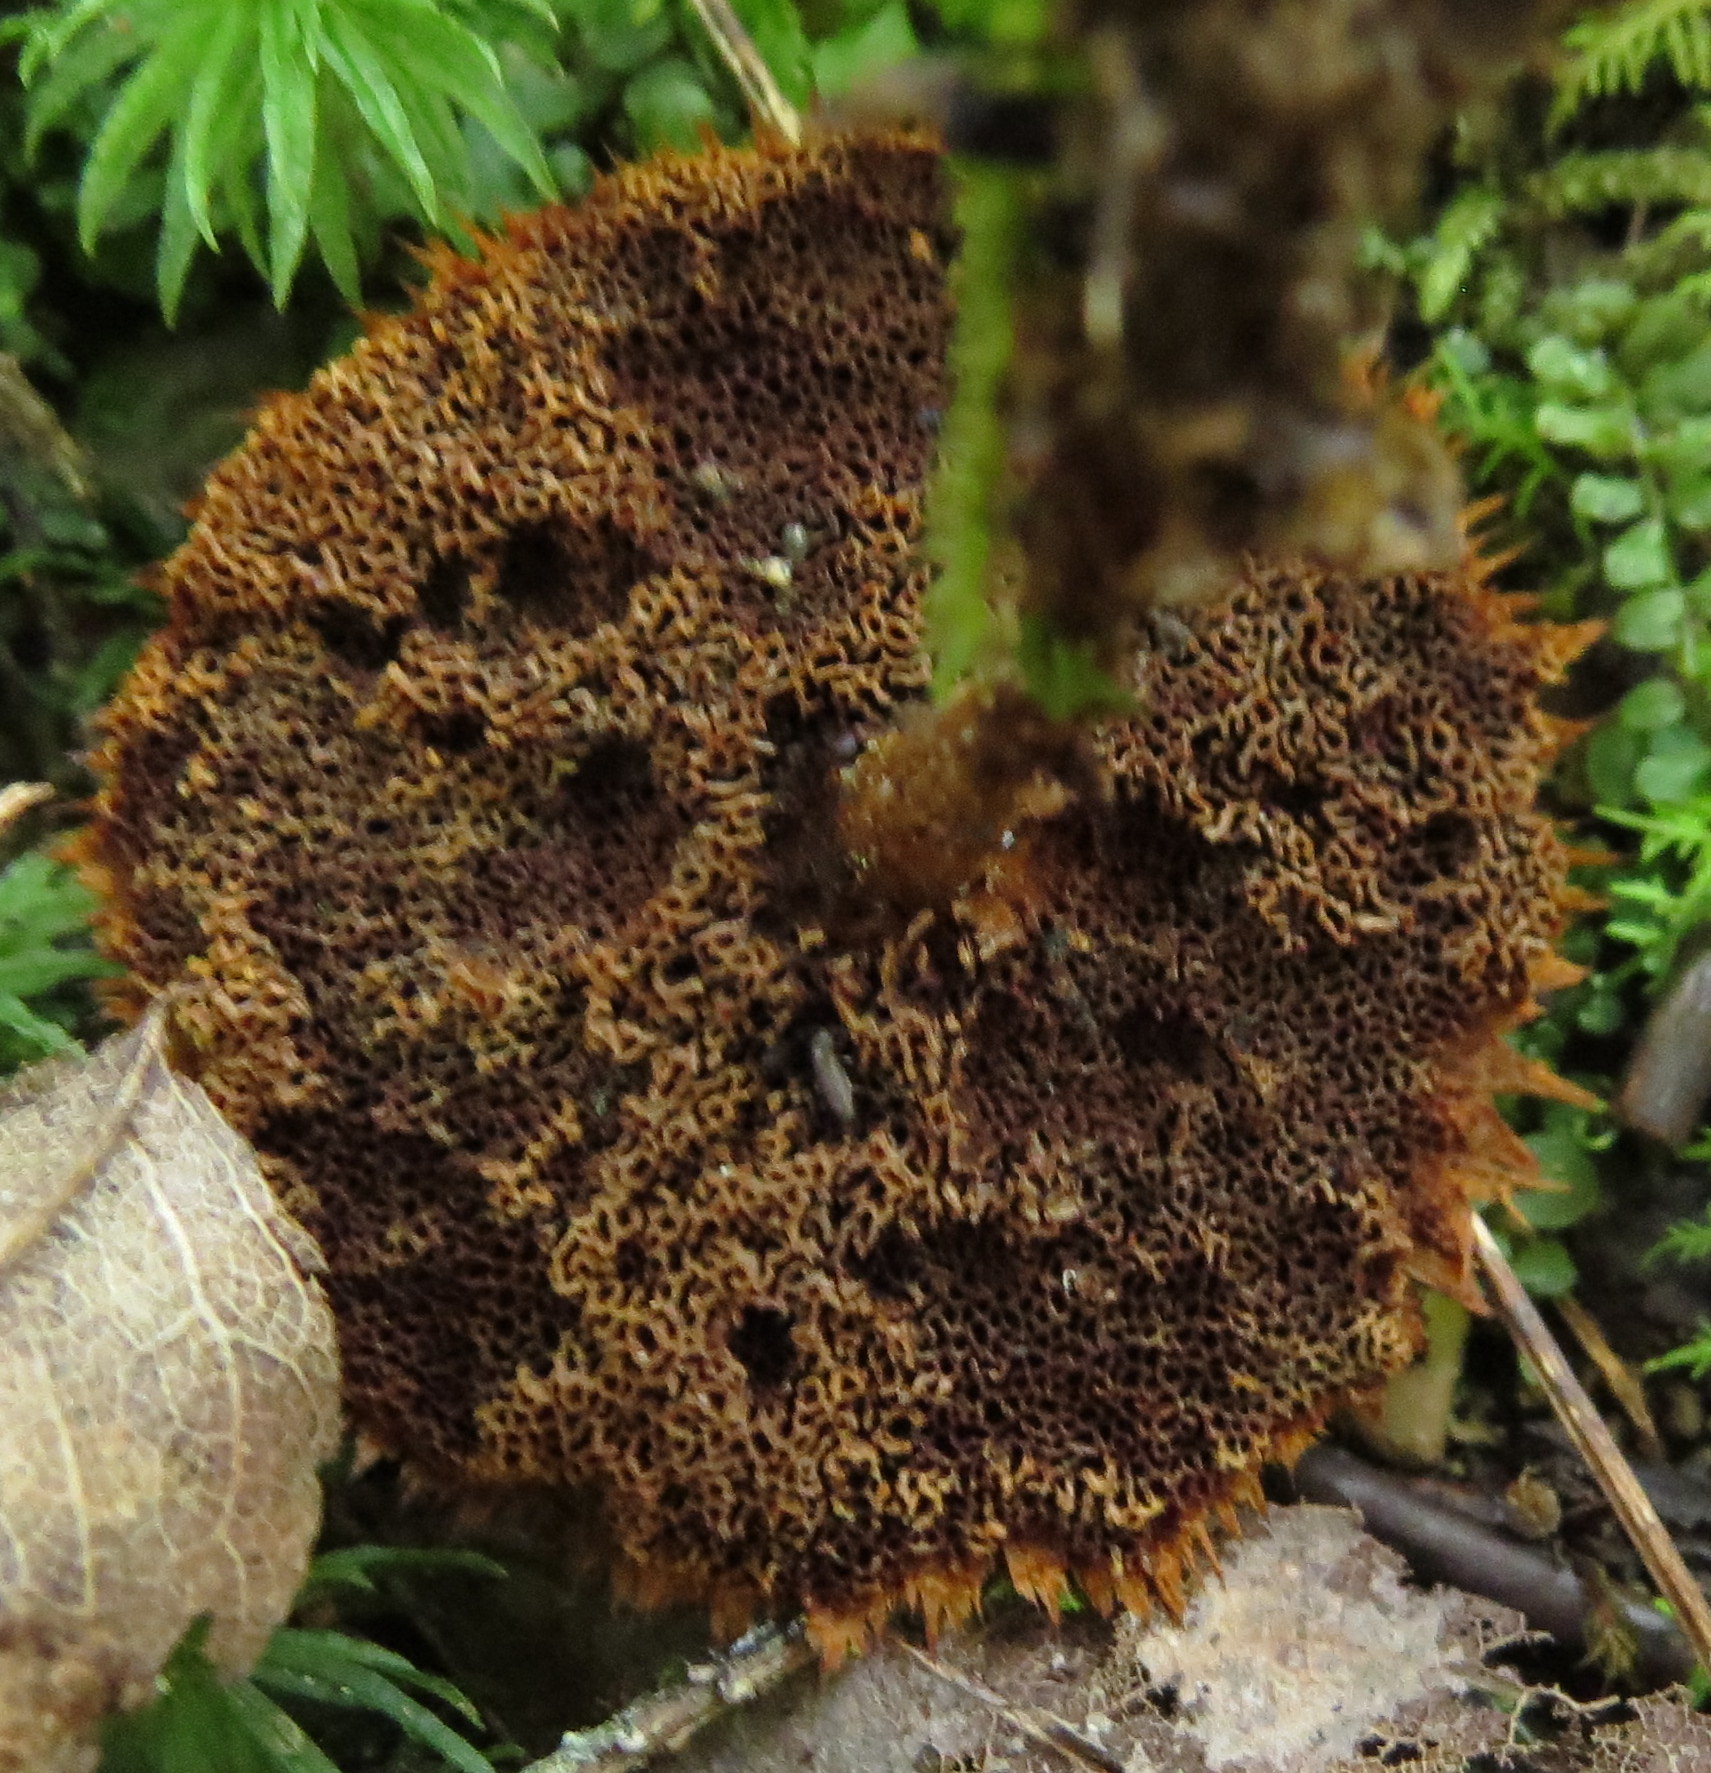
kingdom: Fungi
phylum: Basidiomycota
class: Agaricomycetes
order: Hymenochaetales
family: Hymenochaetaceae
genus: Coltricia
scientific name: Coltricia cinnamomea
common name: Shiny cinnamon polypore
